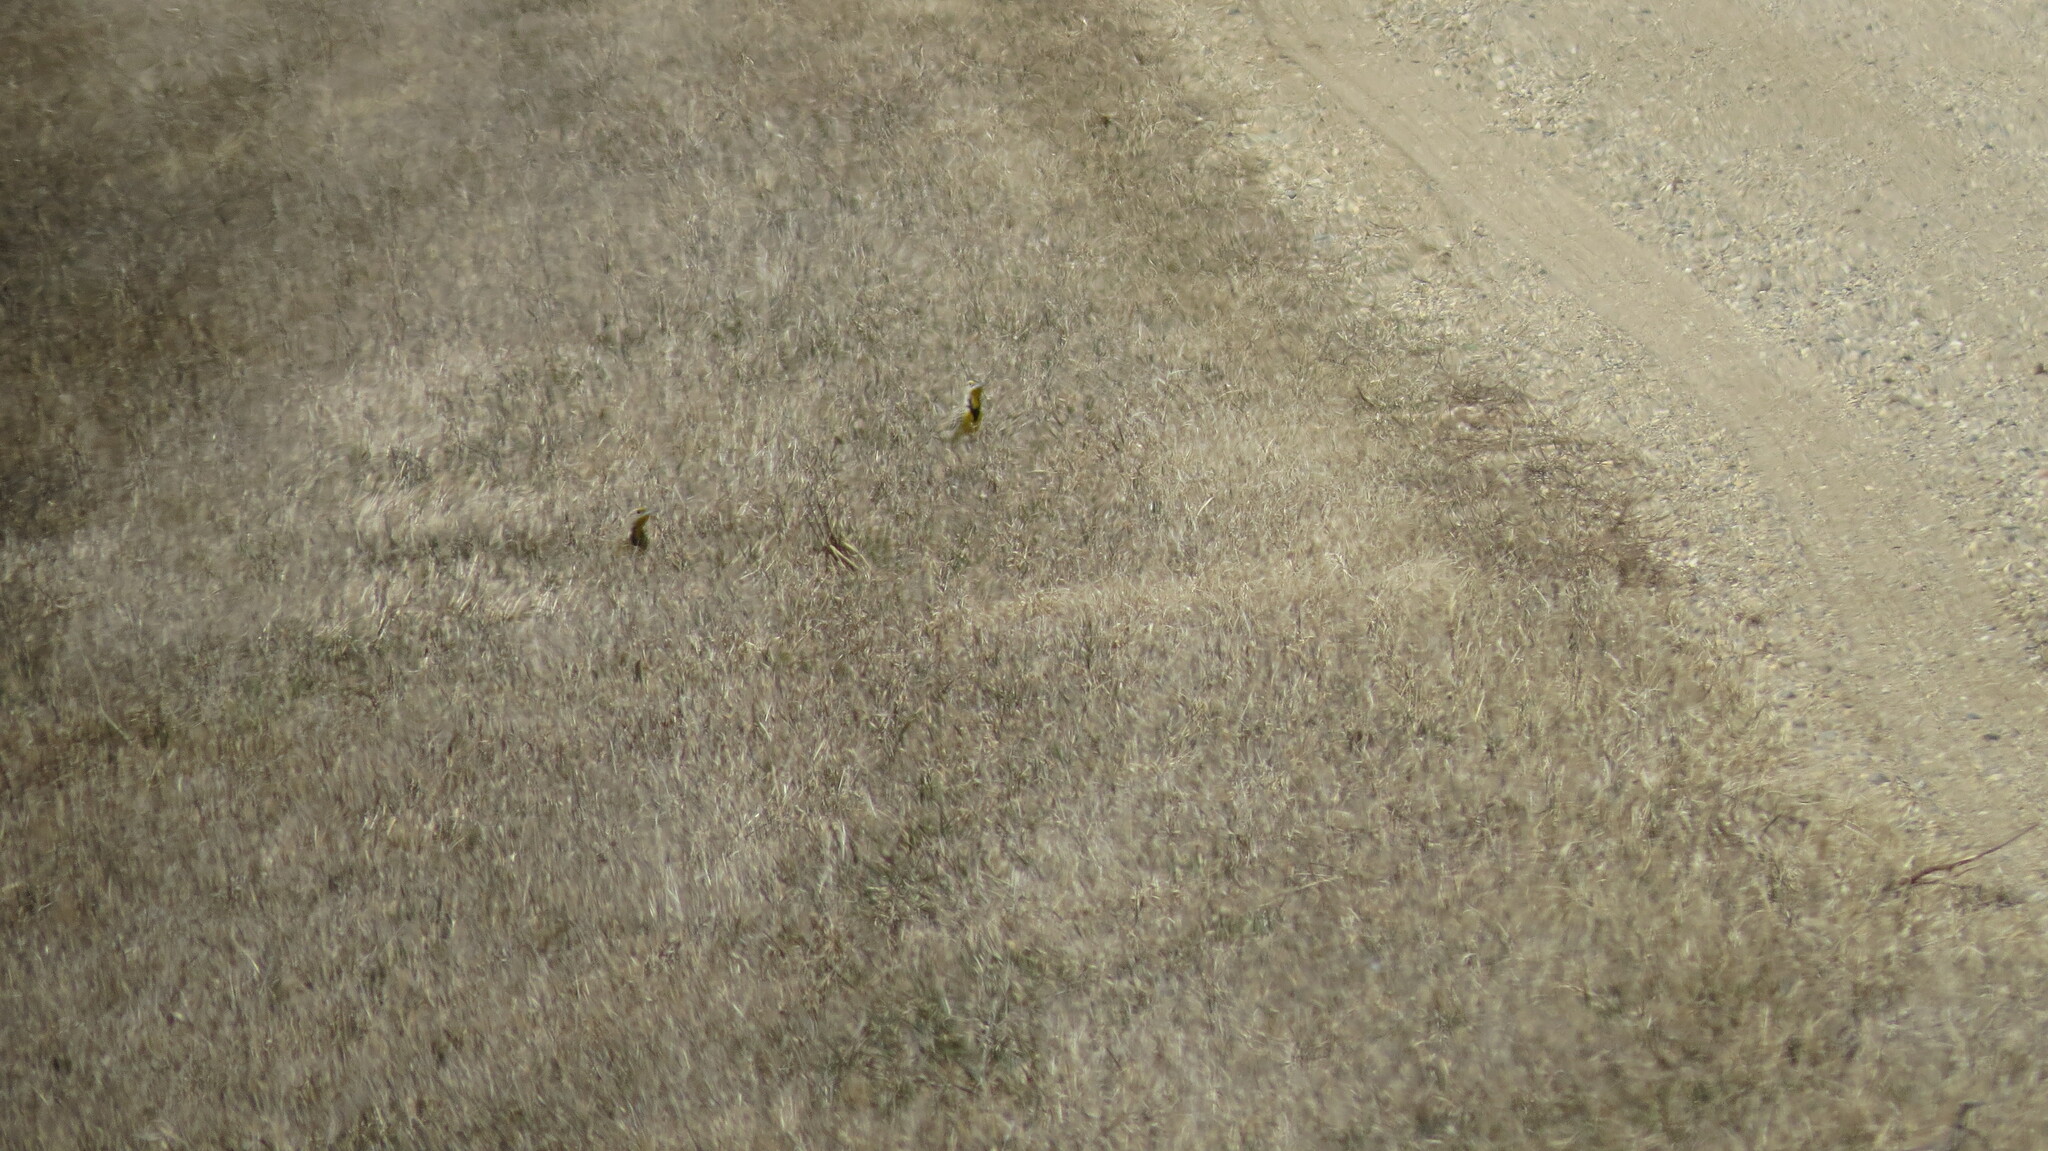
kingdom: Animalia
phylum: Chordata
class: Aves
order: Passeriformes
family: Icteridae
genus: Sturnella
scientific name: Sturnella neglecta
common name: Western meadowlark
